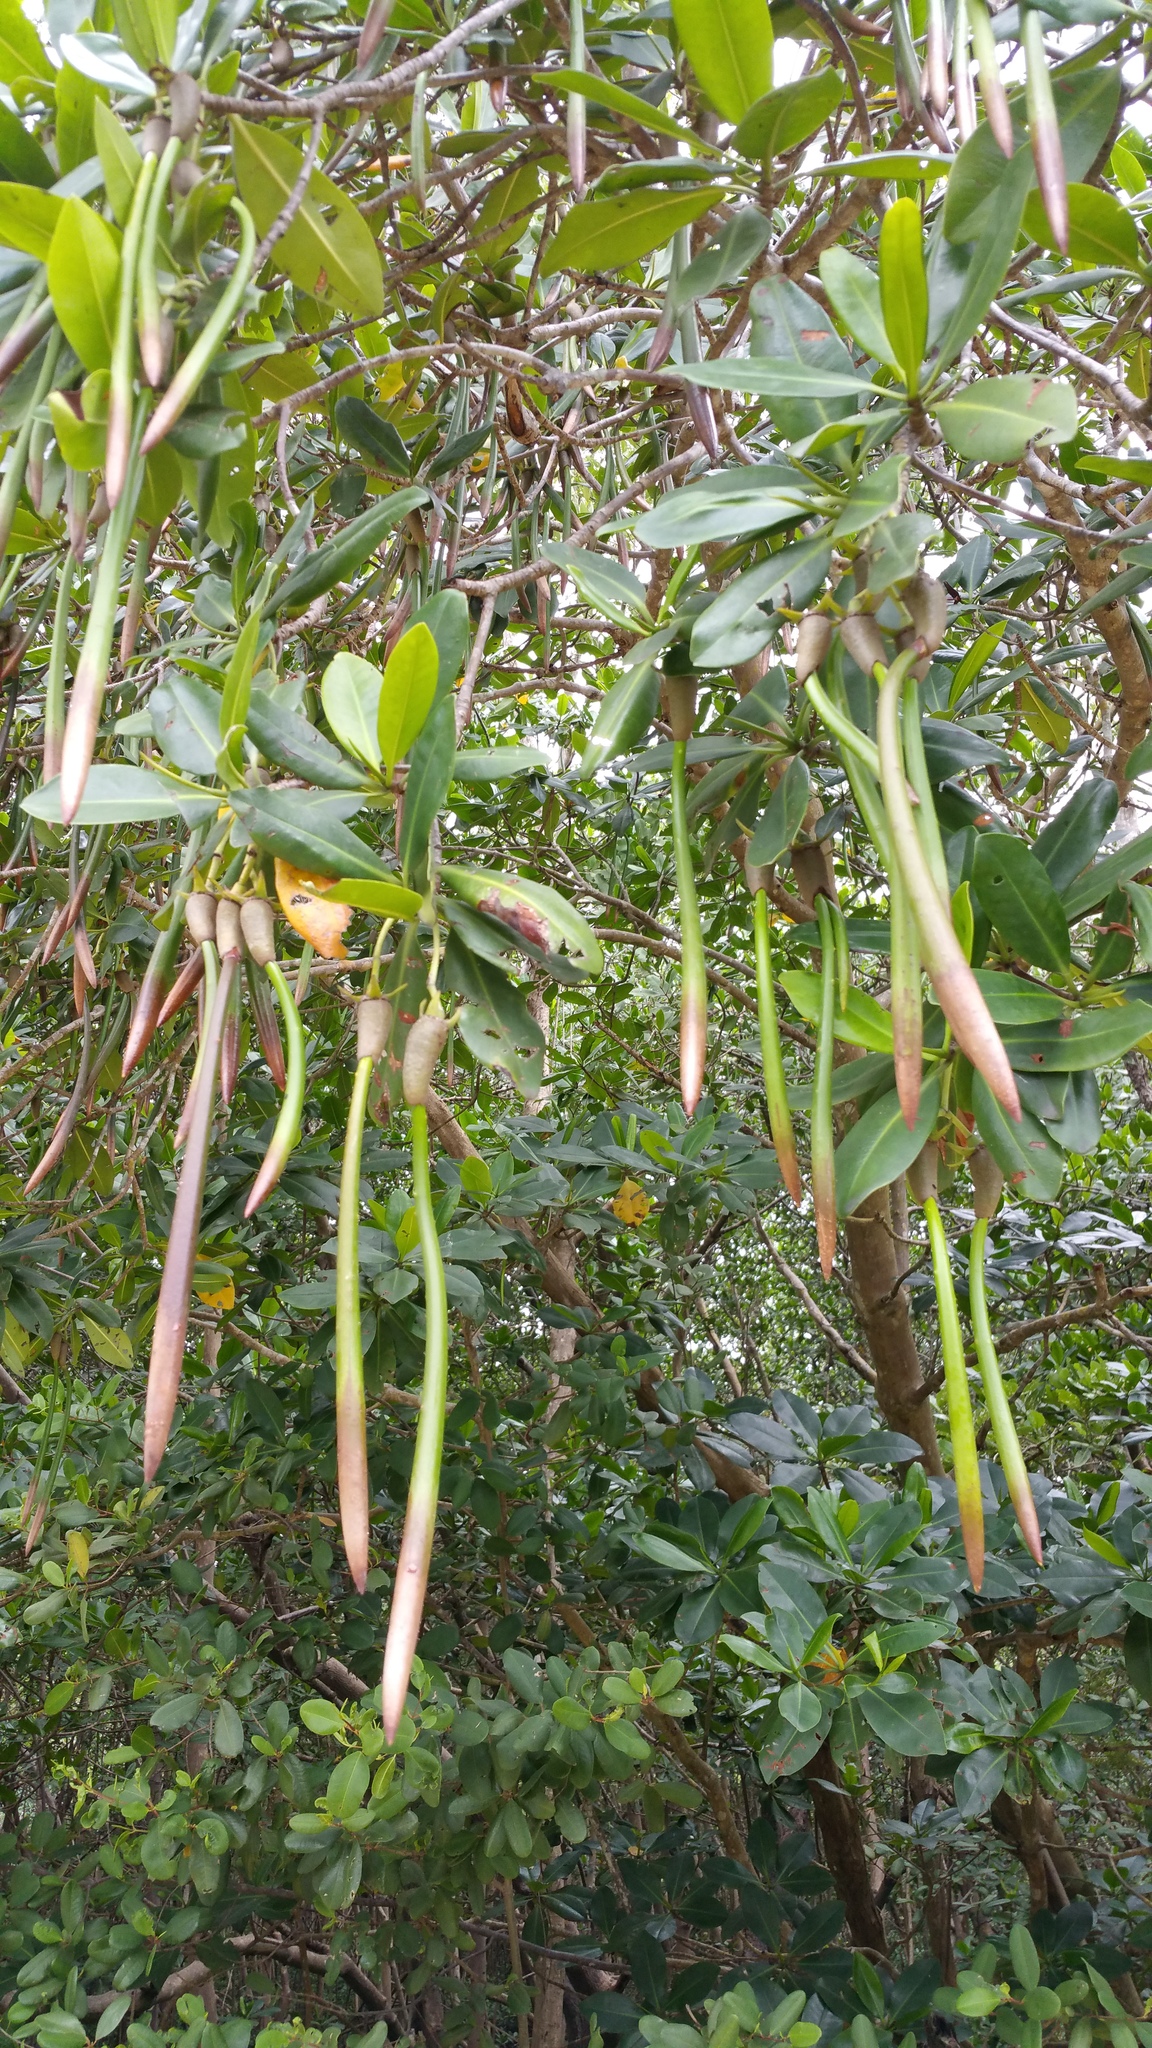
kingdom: Plantae
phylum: Tracheophyta
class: Magnoliopsida
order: Malpighiales
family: Rhizophoraceae
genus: Rhizophora
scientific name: Rhizophora mangle
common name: Red mangrove
